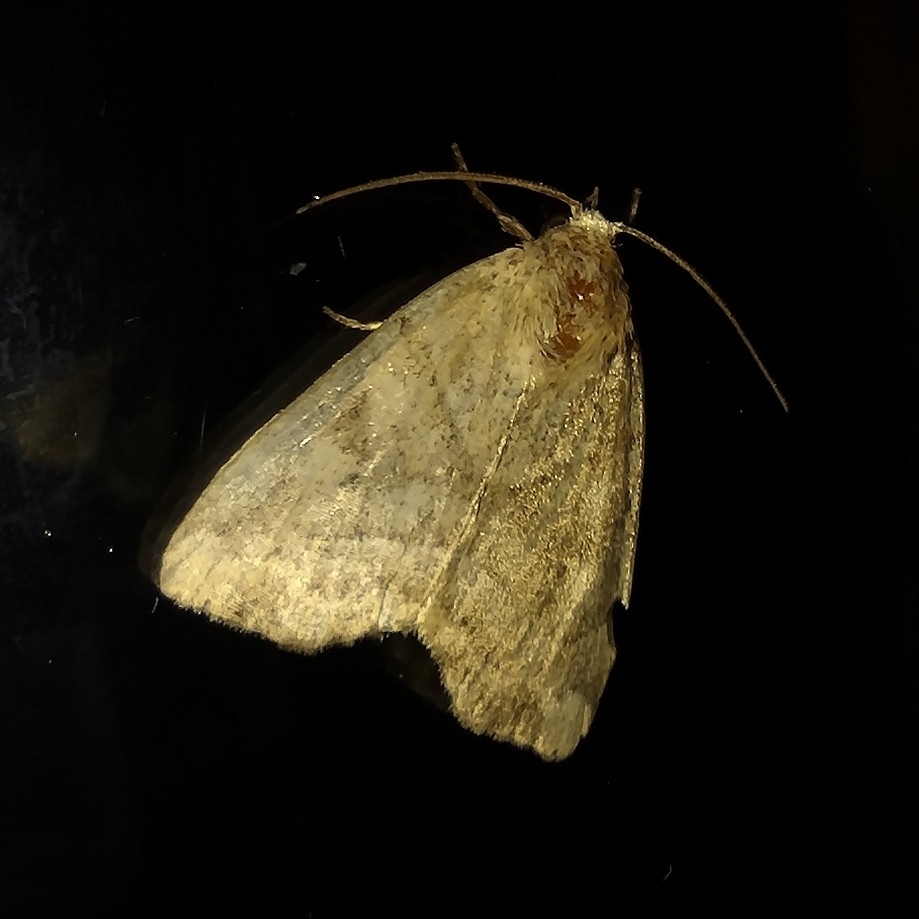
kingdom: Animalia
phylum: Arthropoda
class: Insecta
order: Lepidoptera
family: Noctuidae
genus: Cosmia
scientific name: Cosmia trapezina
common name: Dun-bar
